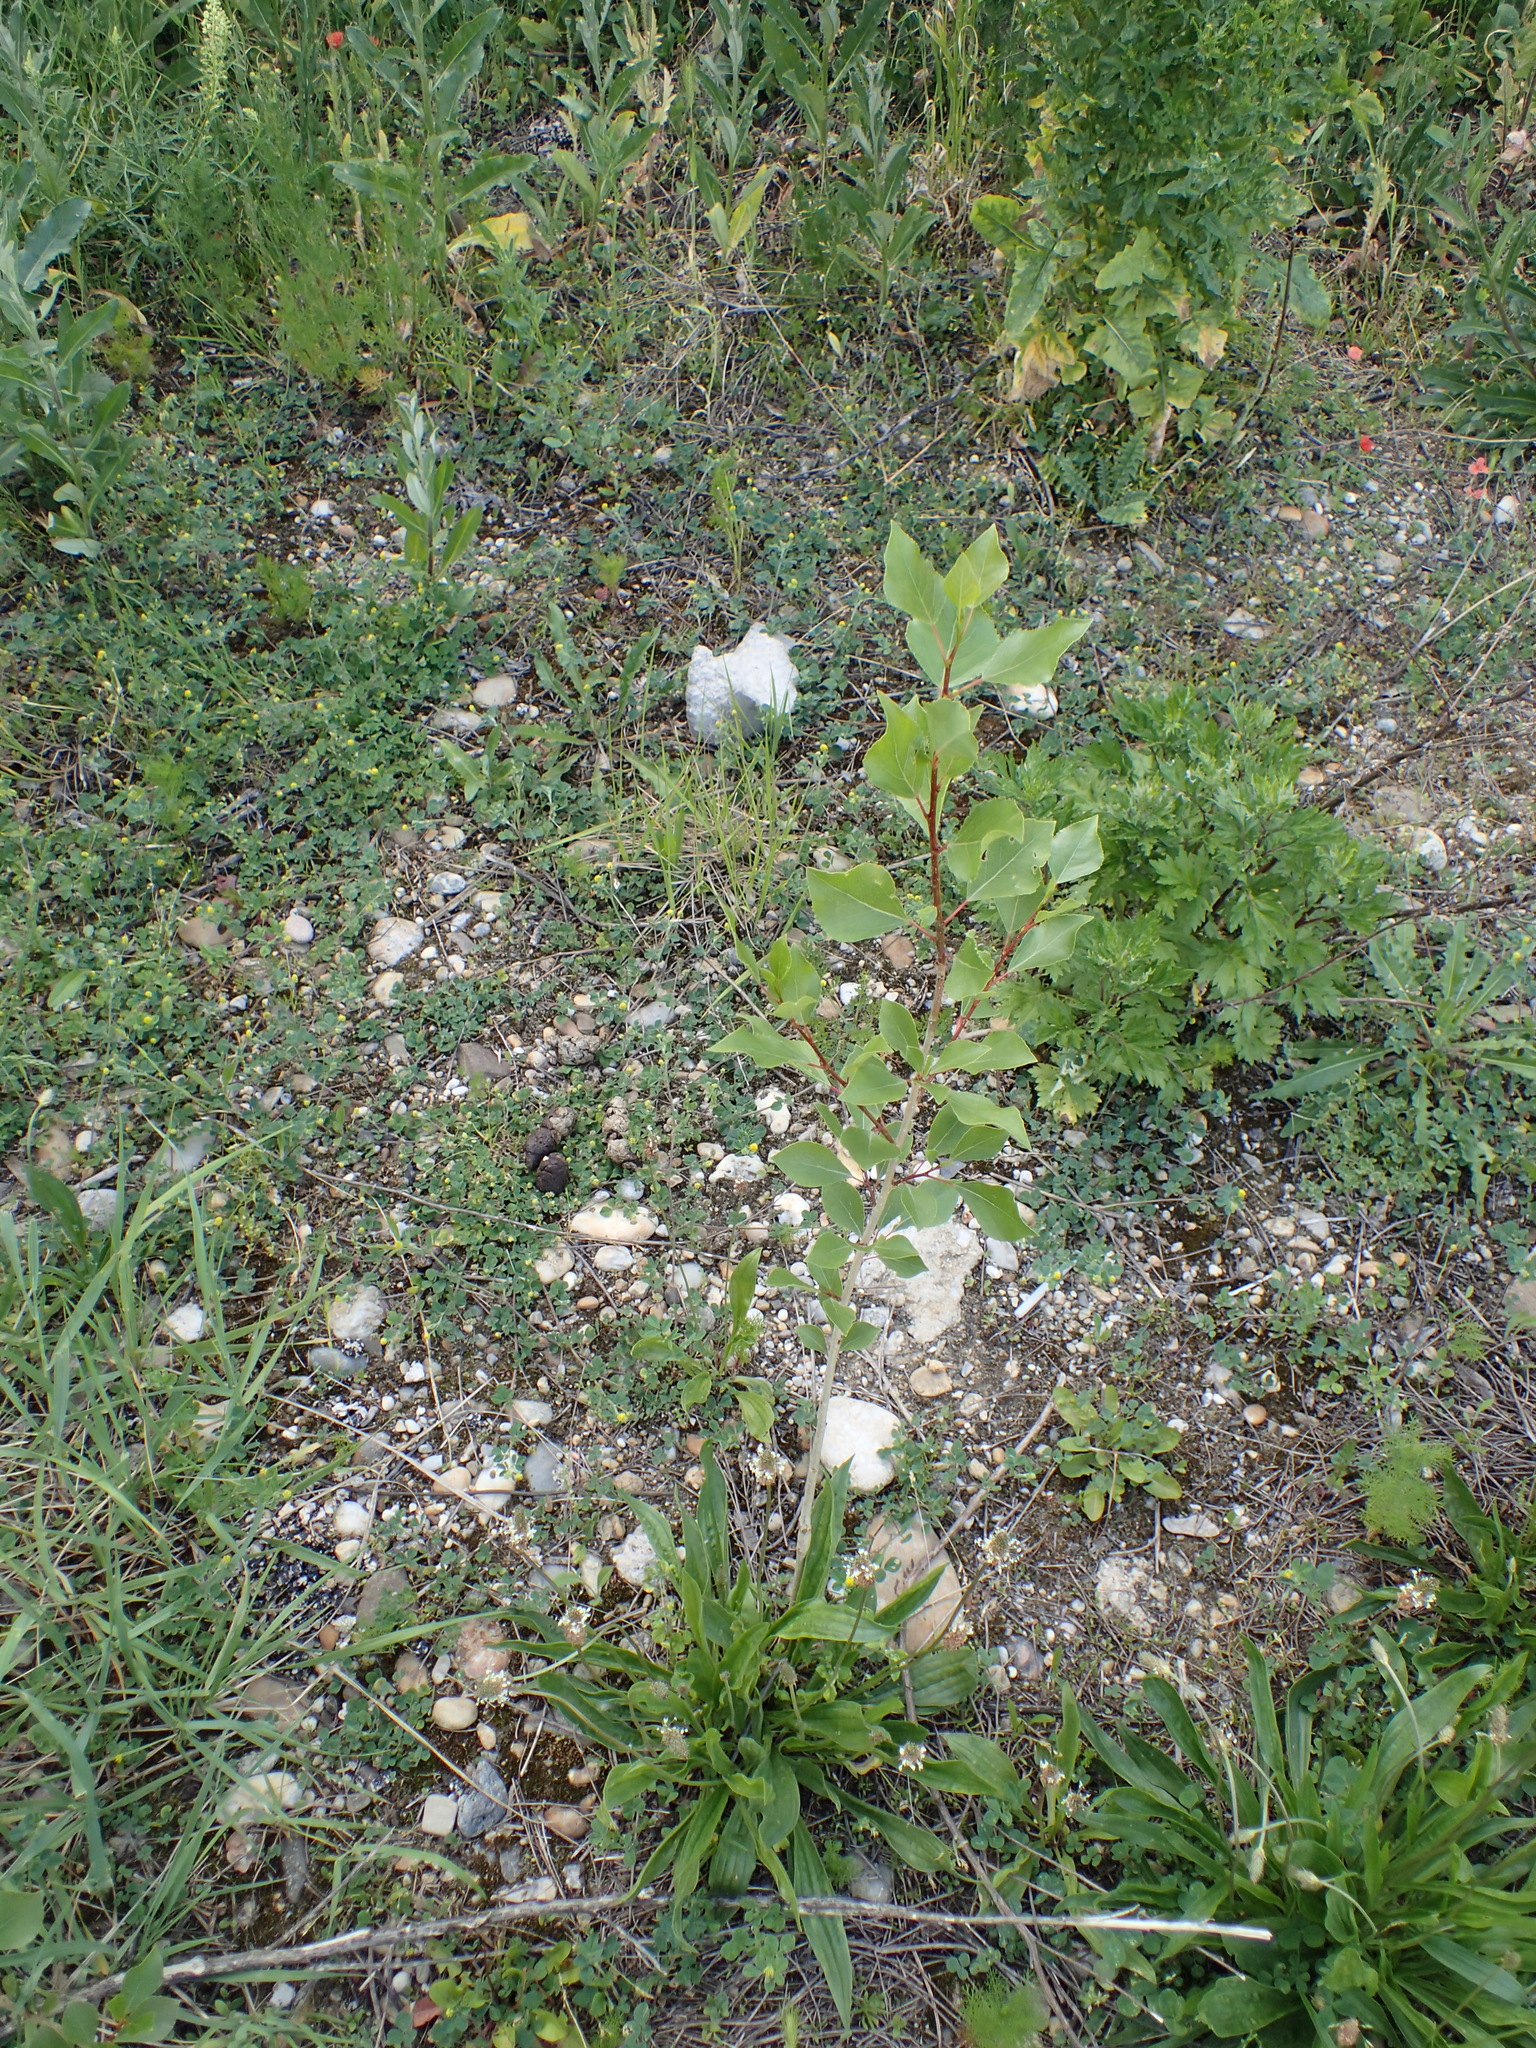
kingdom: Plantae
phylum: Tracheophyta
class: Magnoliopsida
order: Malpighiales
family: Salicaceae
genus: Populus
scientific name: Populus nigra
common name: Black poplar
